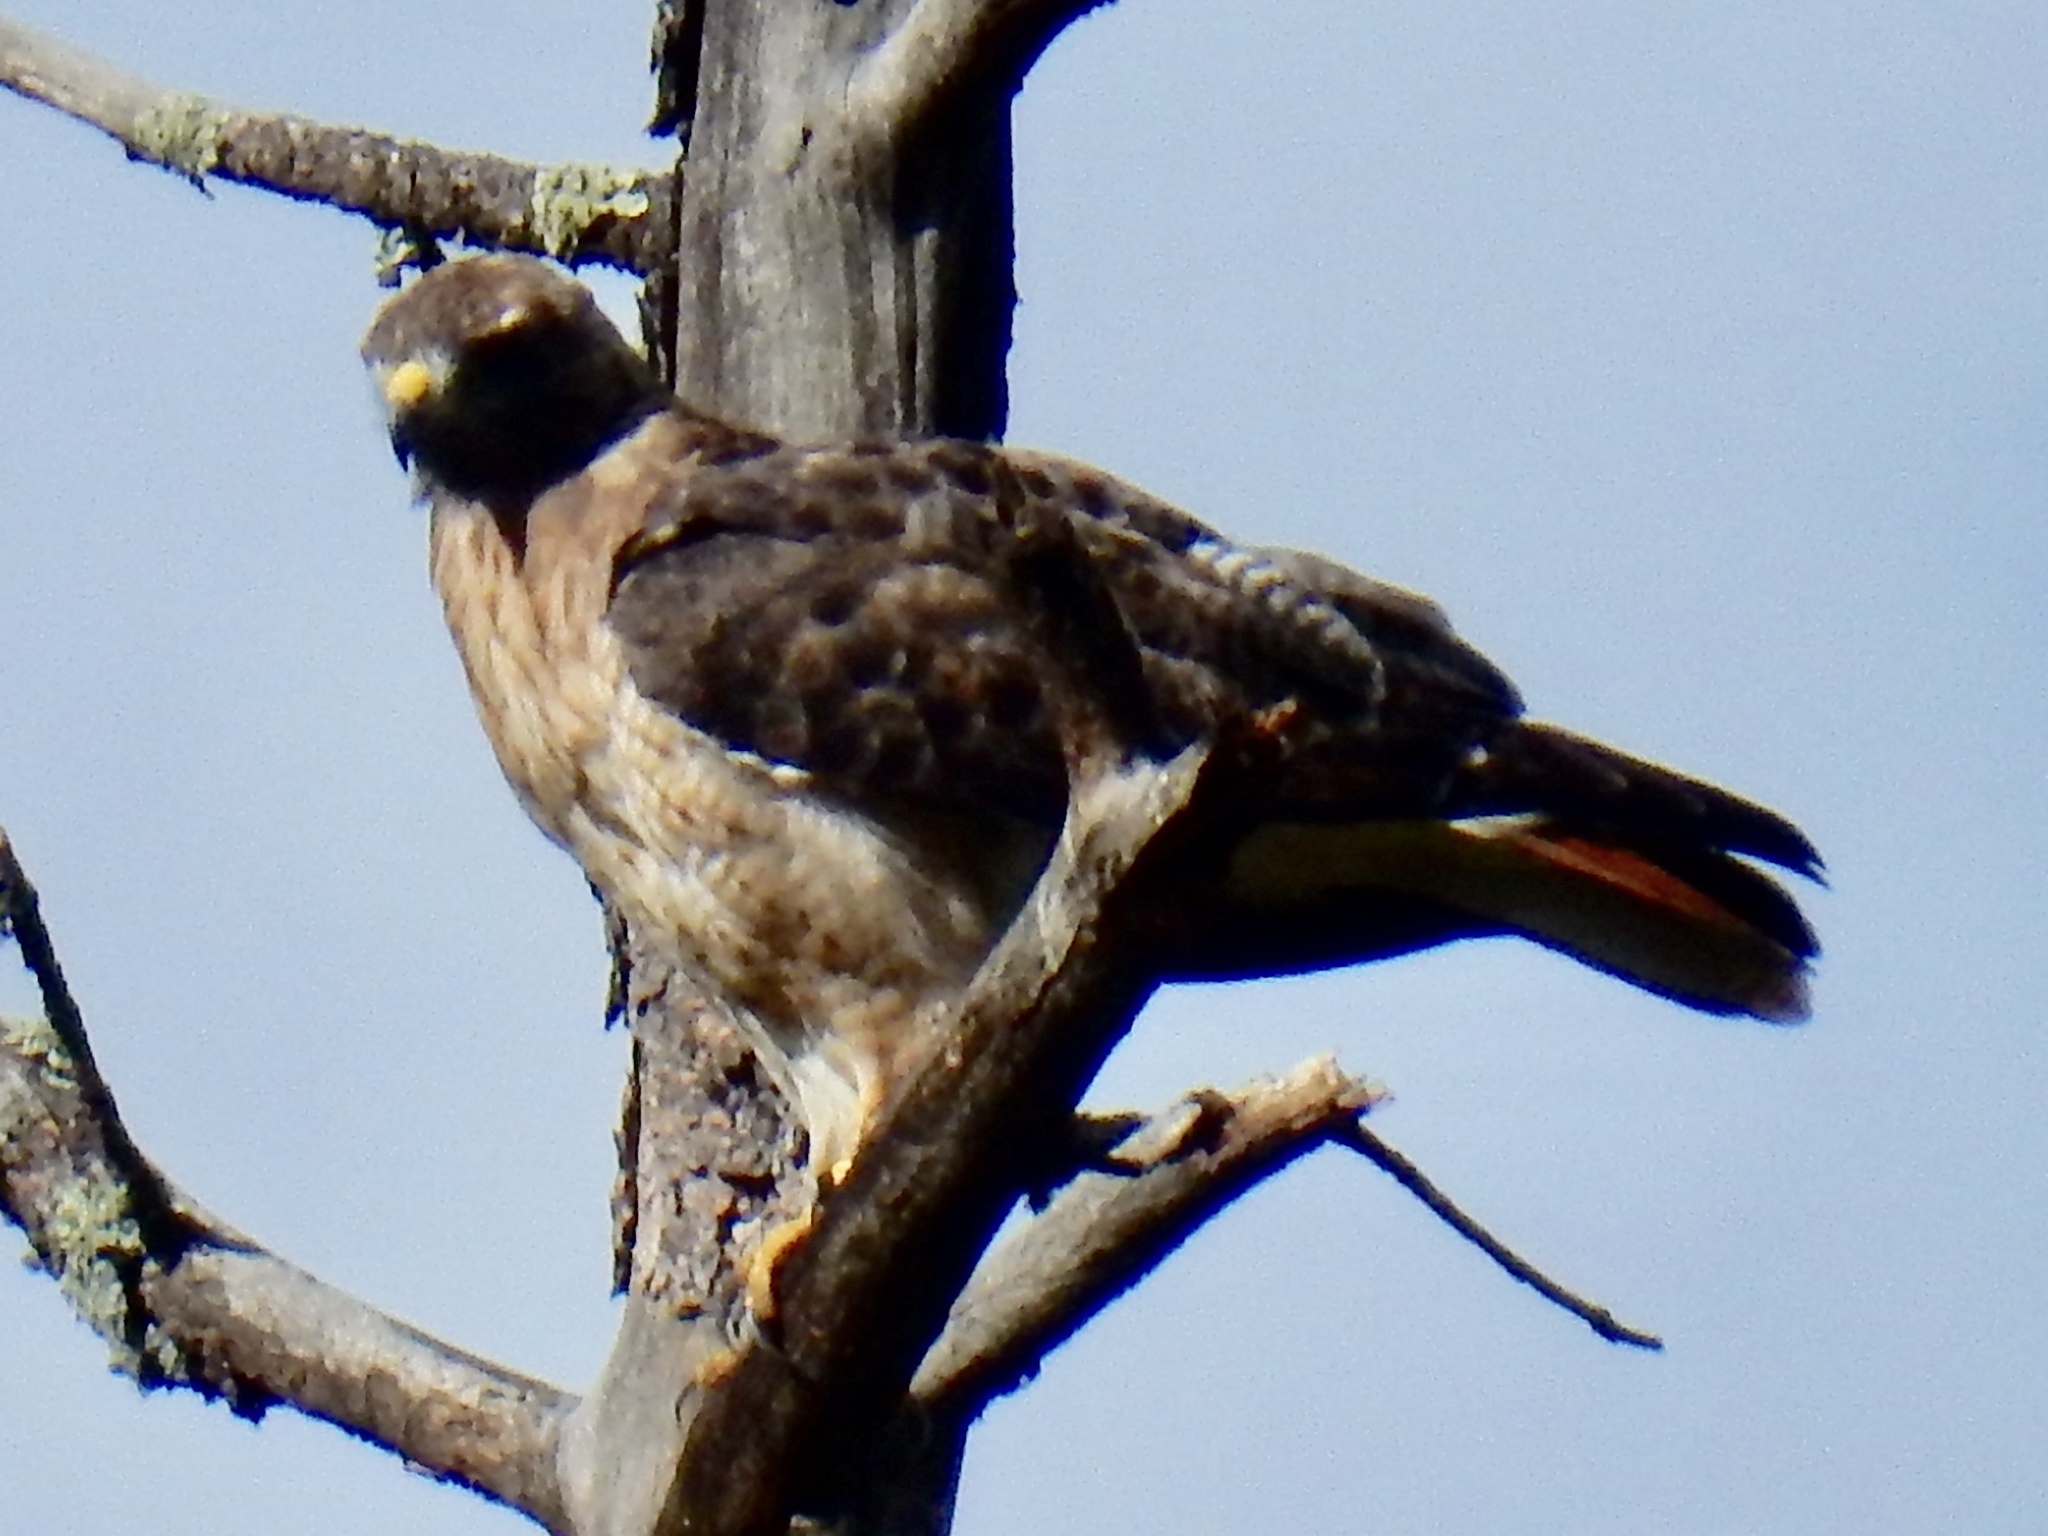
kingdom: Animalia
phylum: Chordata
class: Aves
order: Accipitriformes
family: Accipitridae
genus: Buteo
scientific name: Buteo jamaicensis
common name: Red-tailed hawk
